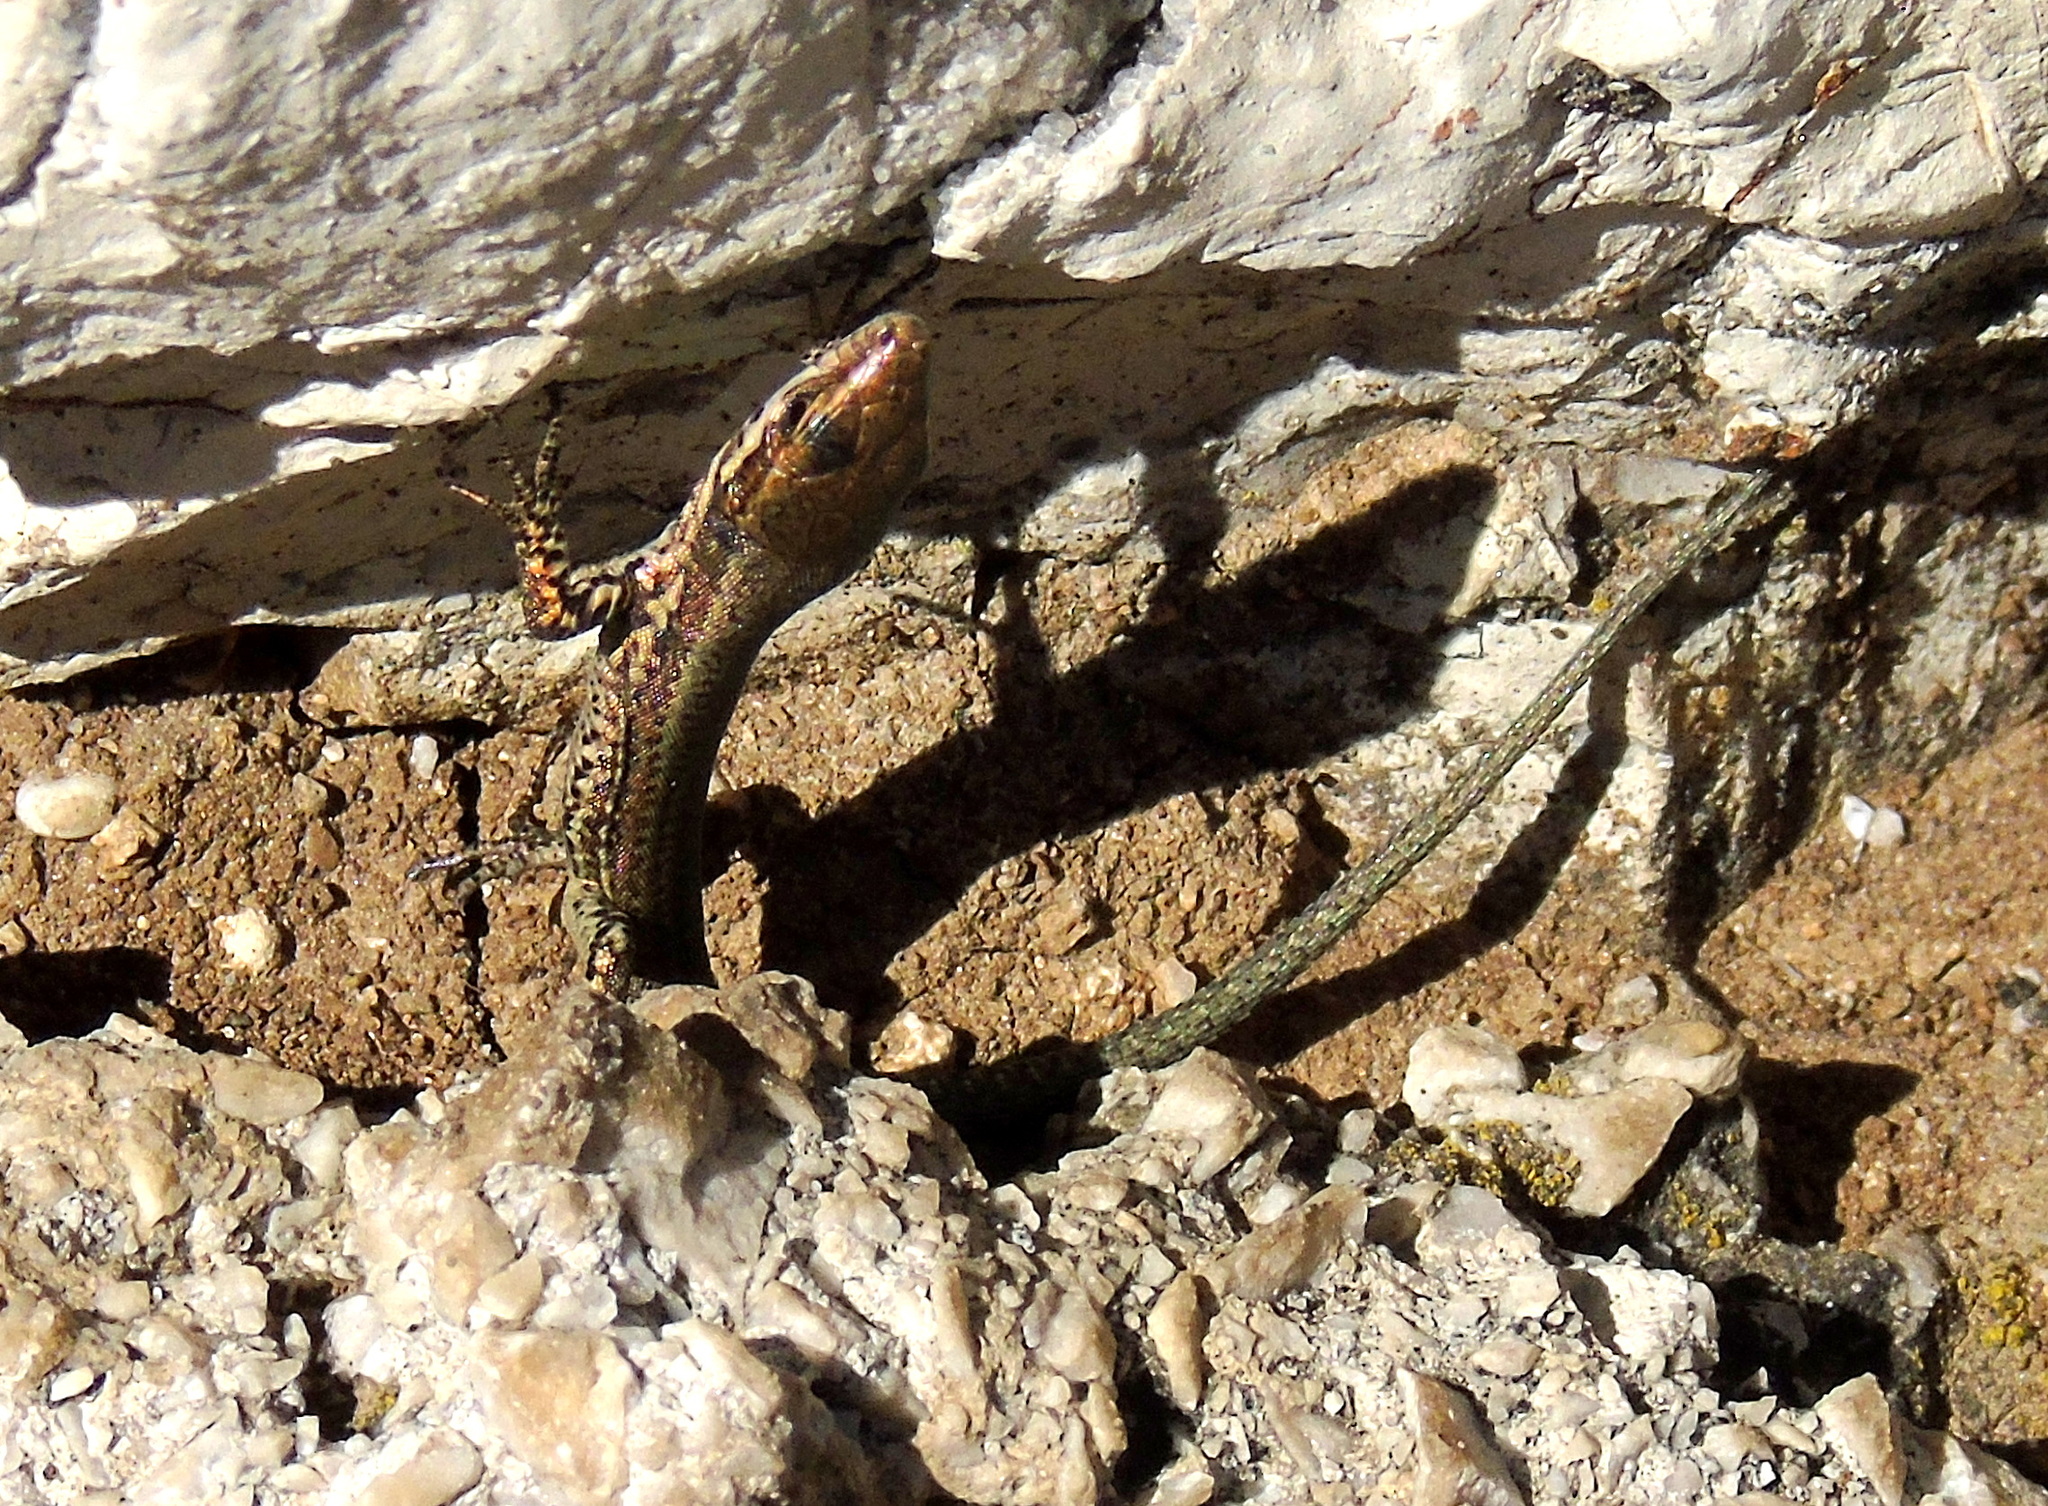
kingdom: Animalia
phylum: Chordata
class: Squamata
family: Lacertidae
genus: Podarcis
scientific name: Podarcis muralis
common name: Common wall lizard
